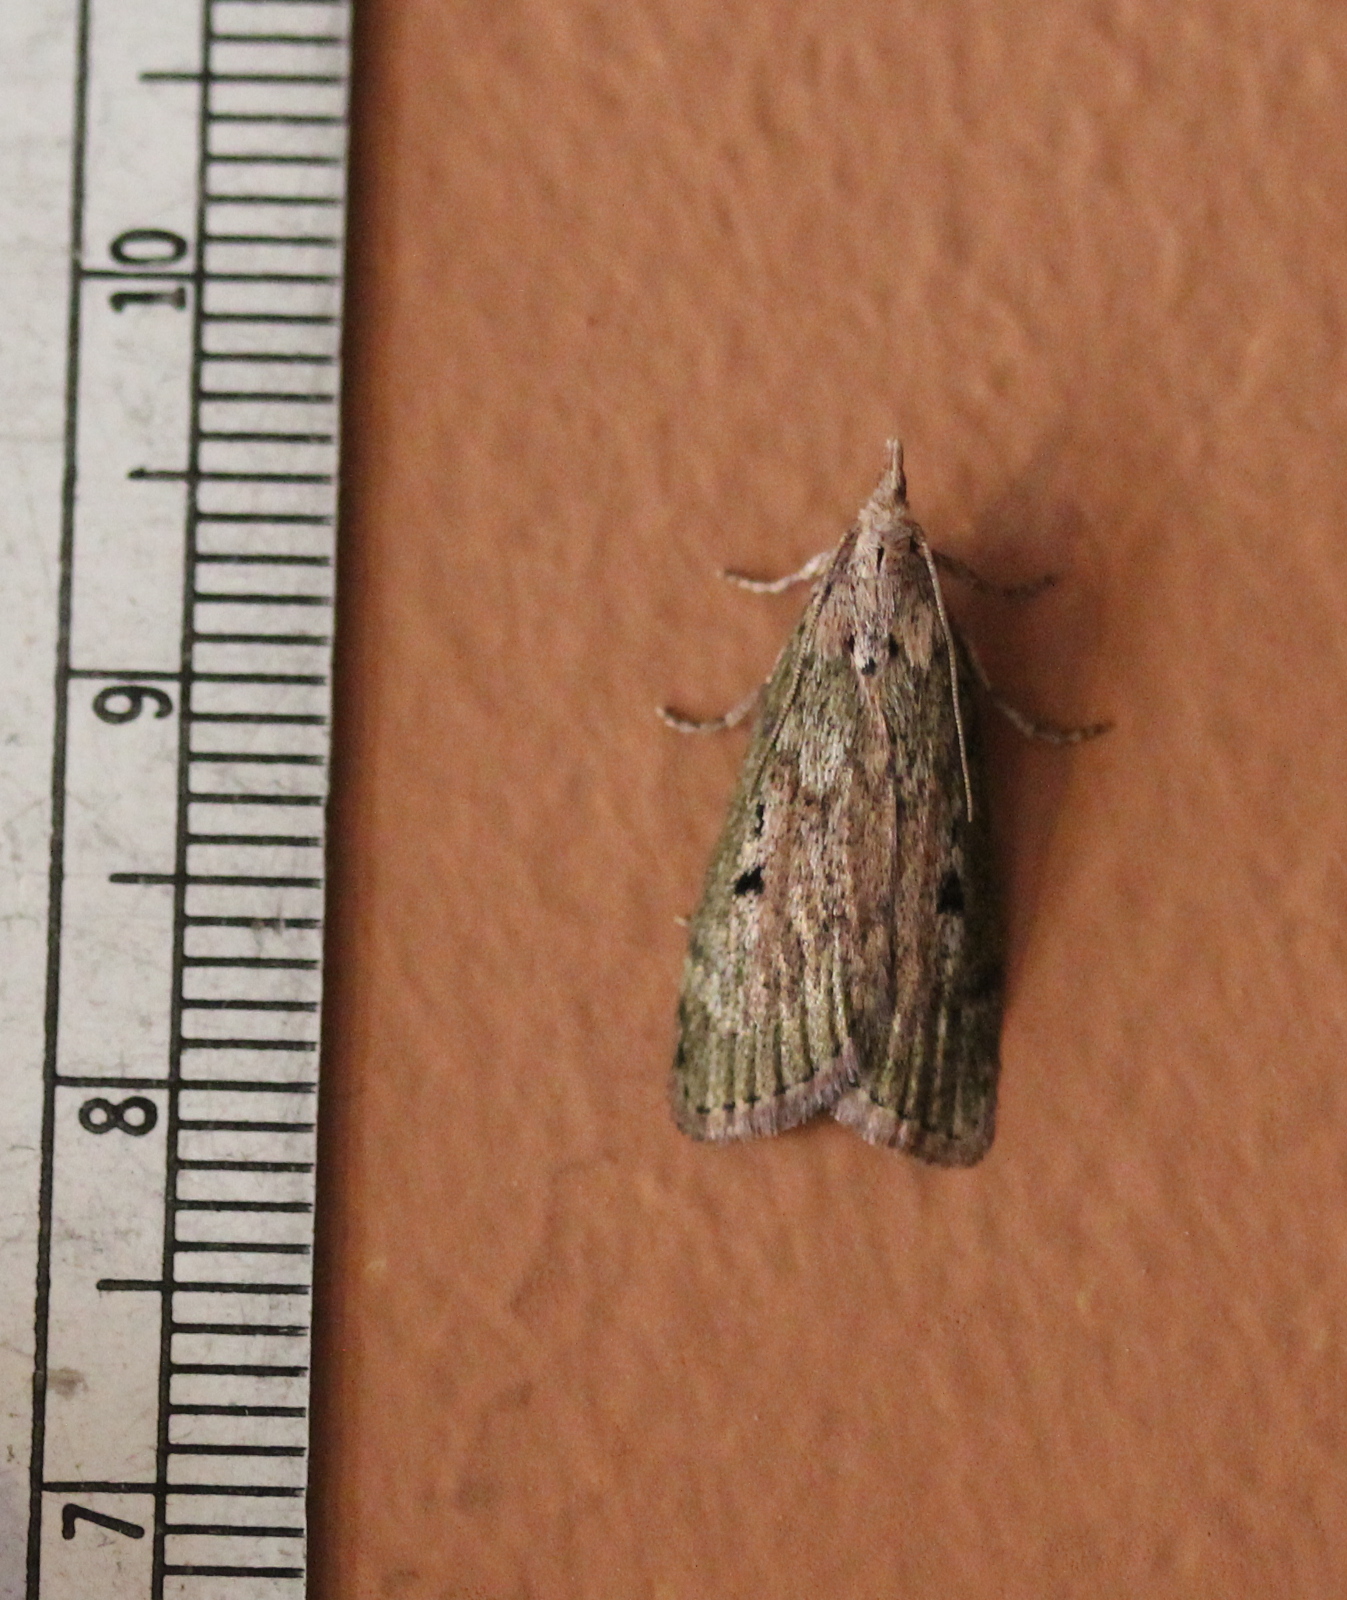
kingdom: Animalia
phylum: Arthropoda
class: Insecta
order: Lepidoptera
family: Pyralidae
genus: Aphomia
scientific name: Aphomia sociella
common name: Bee moth
